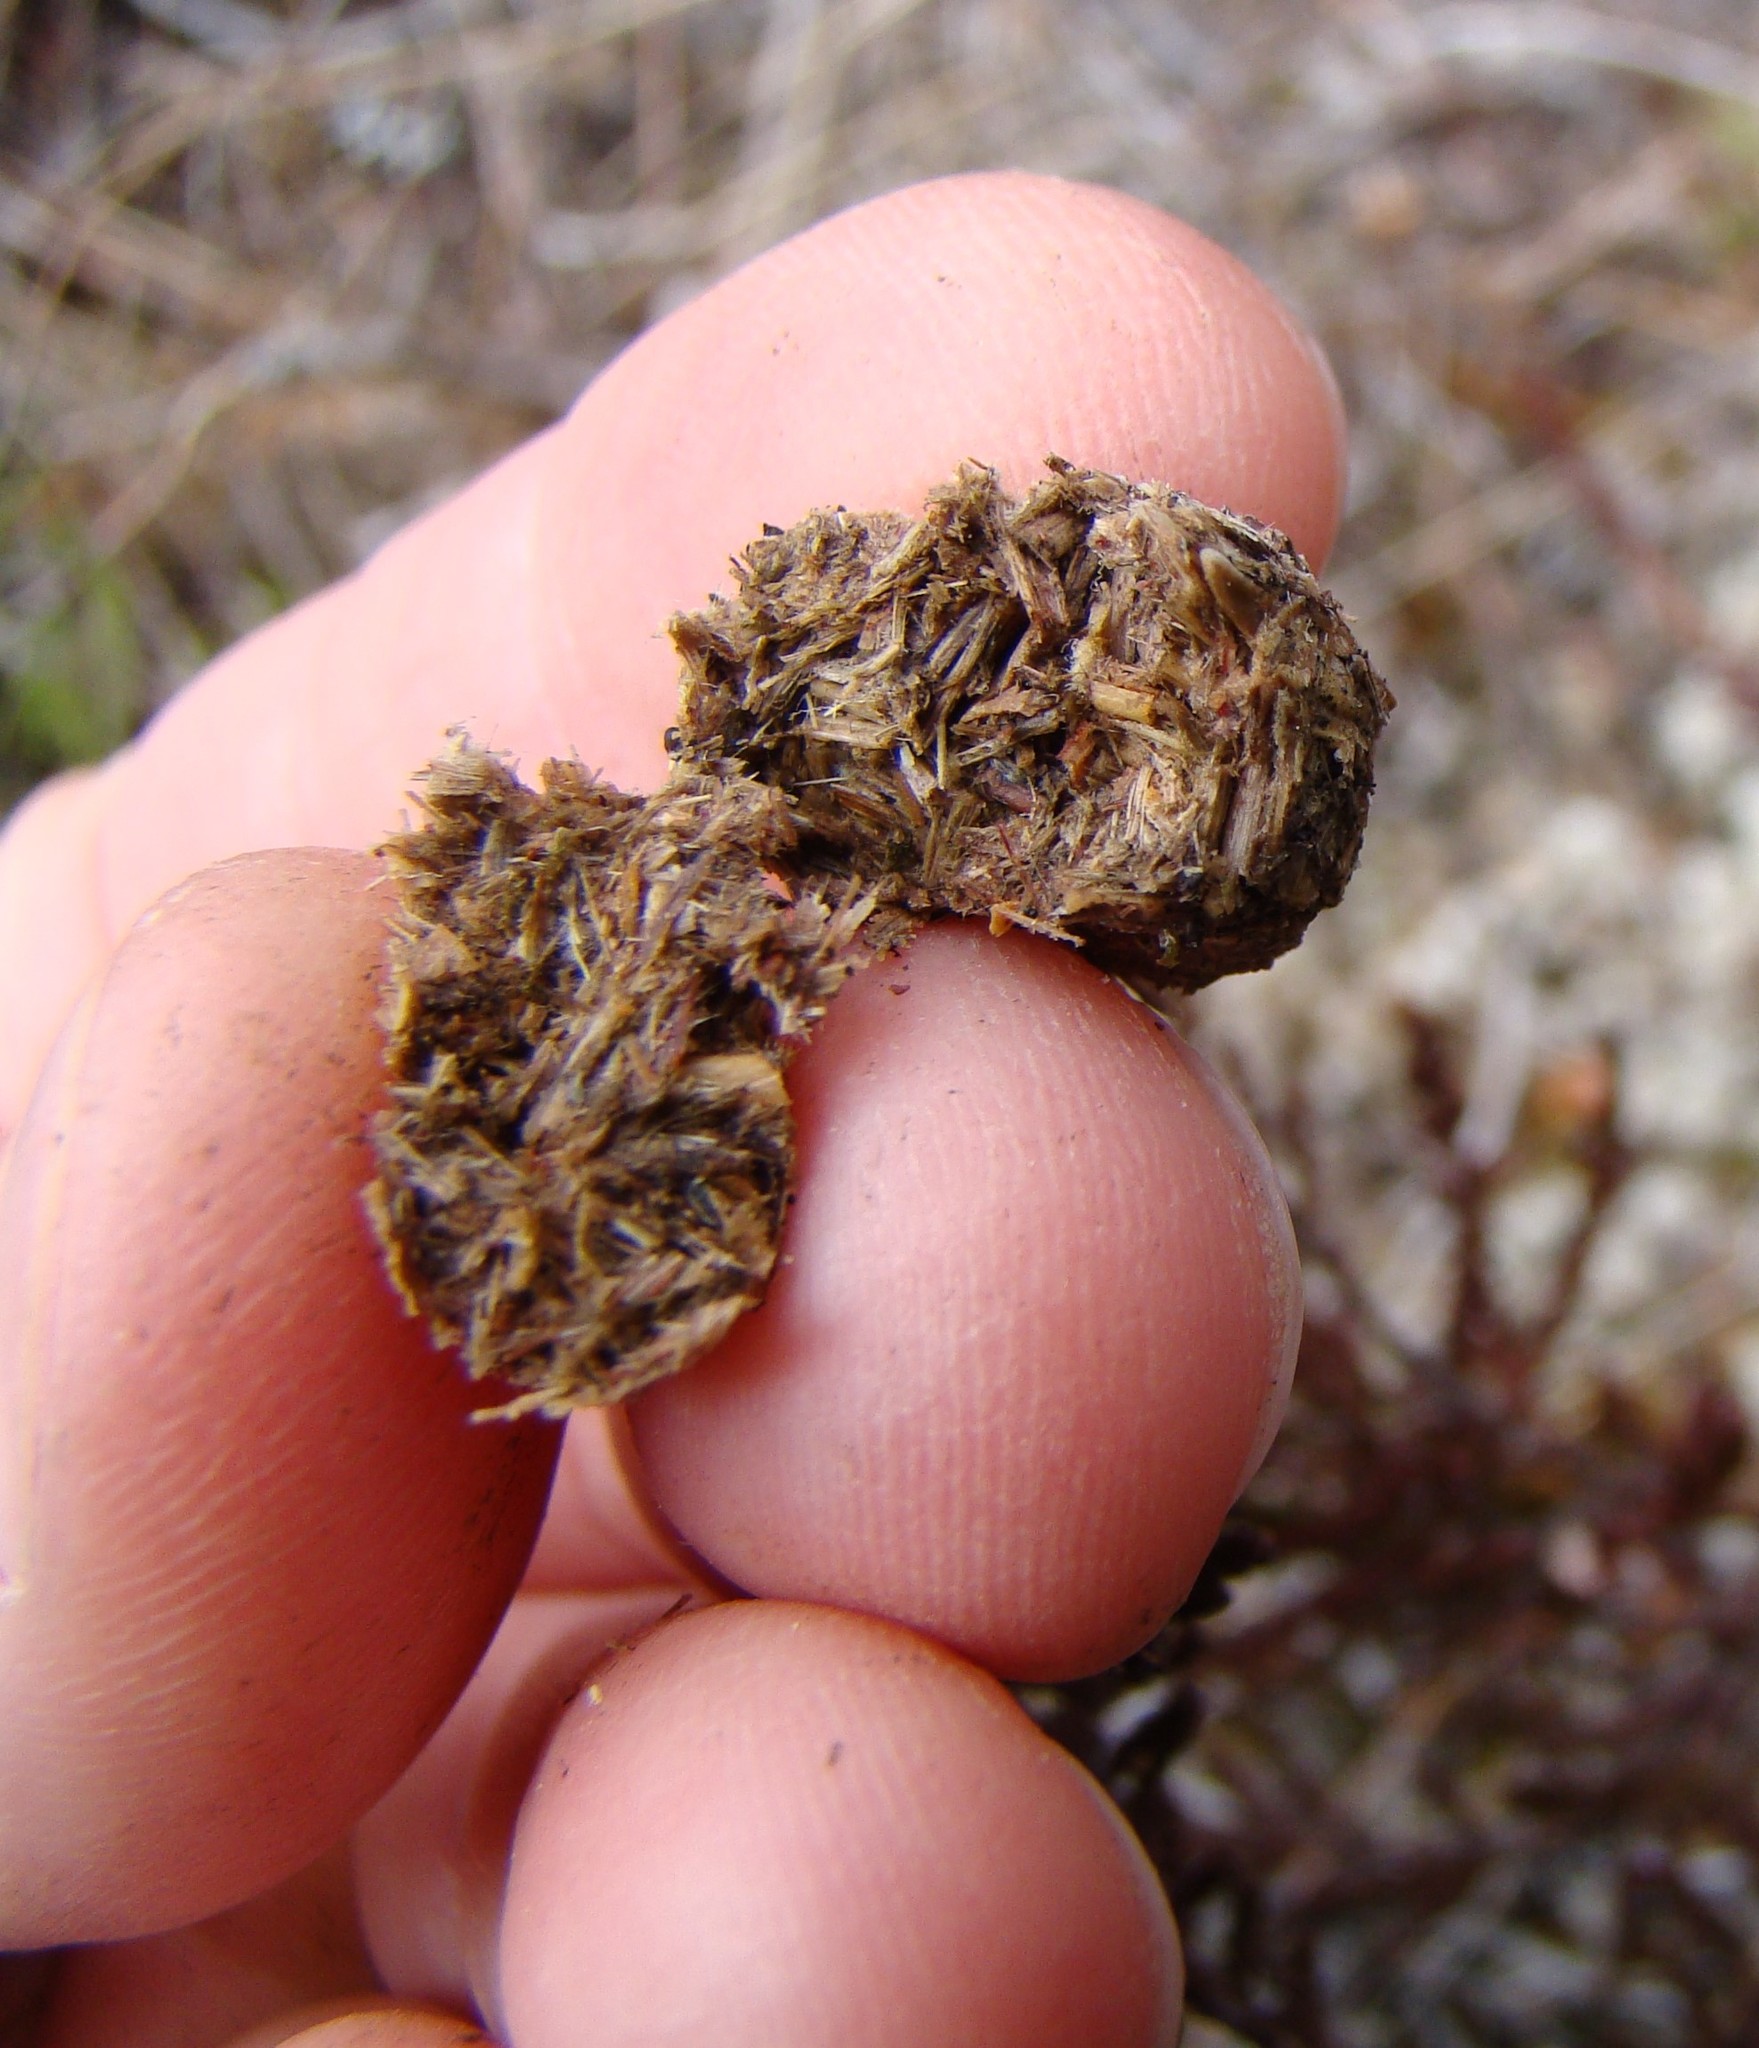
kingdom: Animalia
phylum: Chordata
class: Mammalia
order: Lagomorpha
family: Leporidae
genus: Lepus
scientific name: Lepus europaeus
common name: European hare
